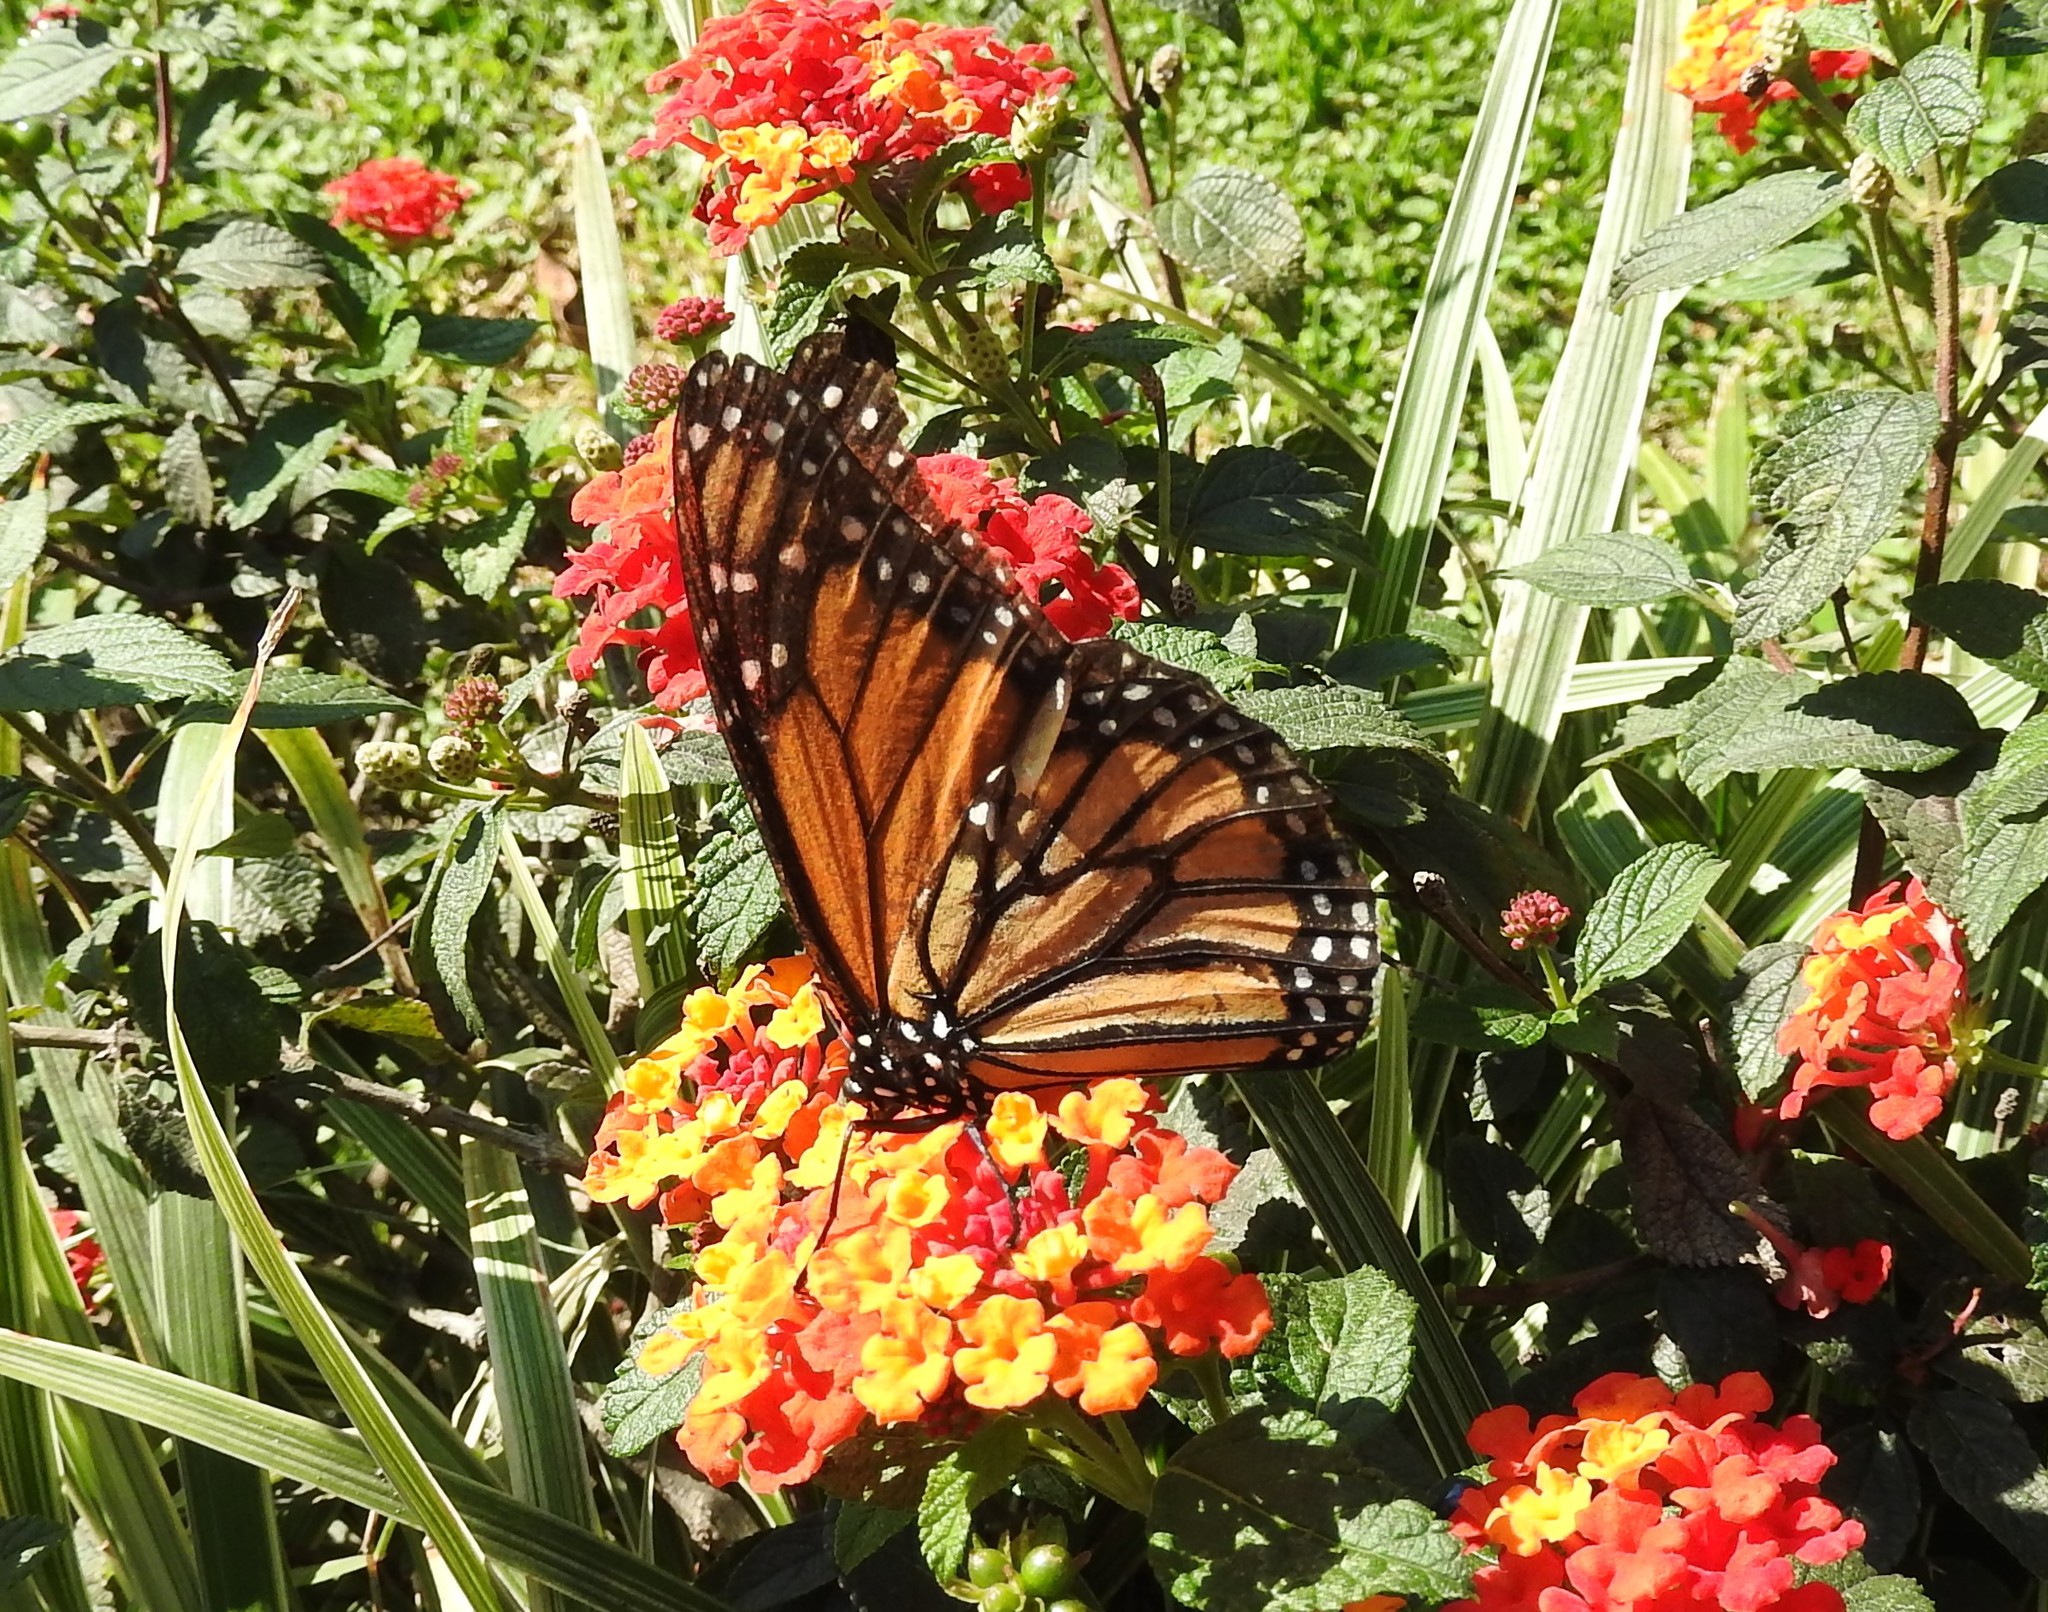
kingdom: Animalia
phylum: Arthropoda
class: Insecta
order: Lepidoptera
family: Nymphalidae
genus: Danaus
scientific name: Danaus plexippus
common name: Monarch
